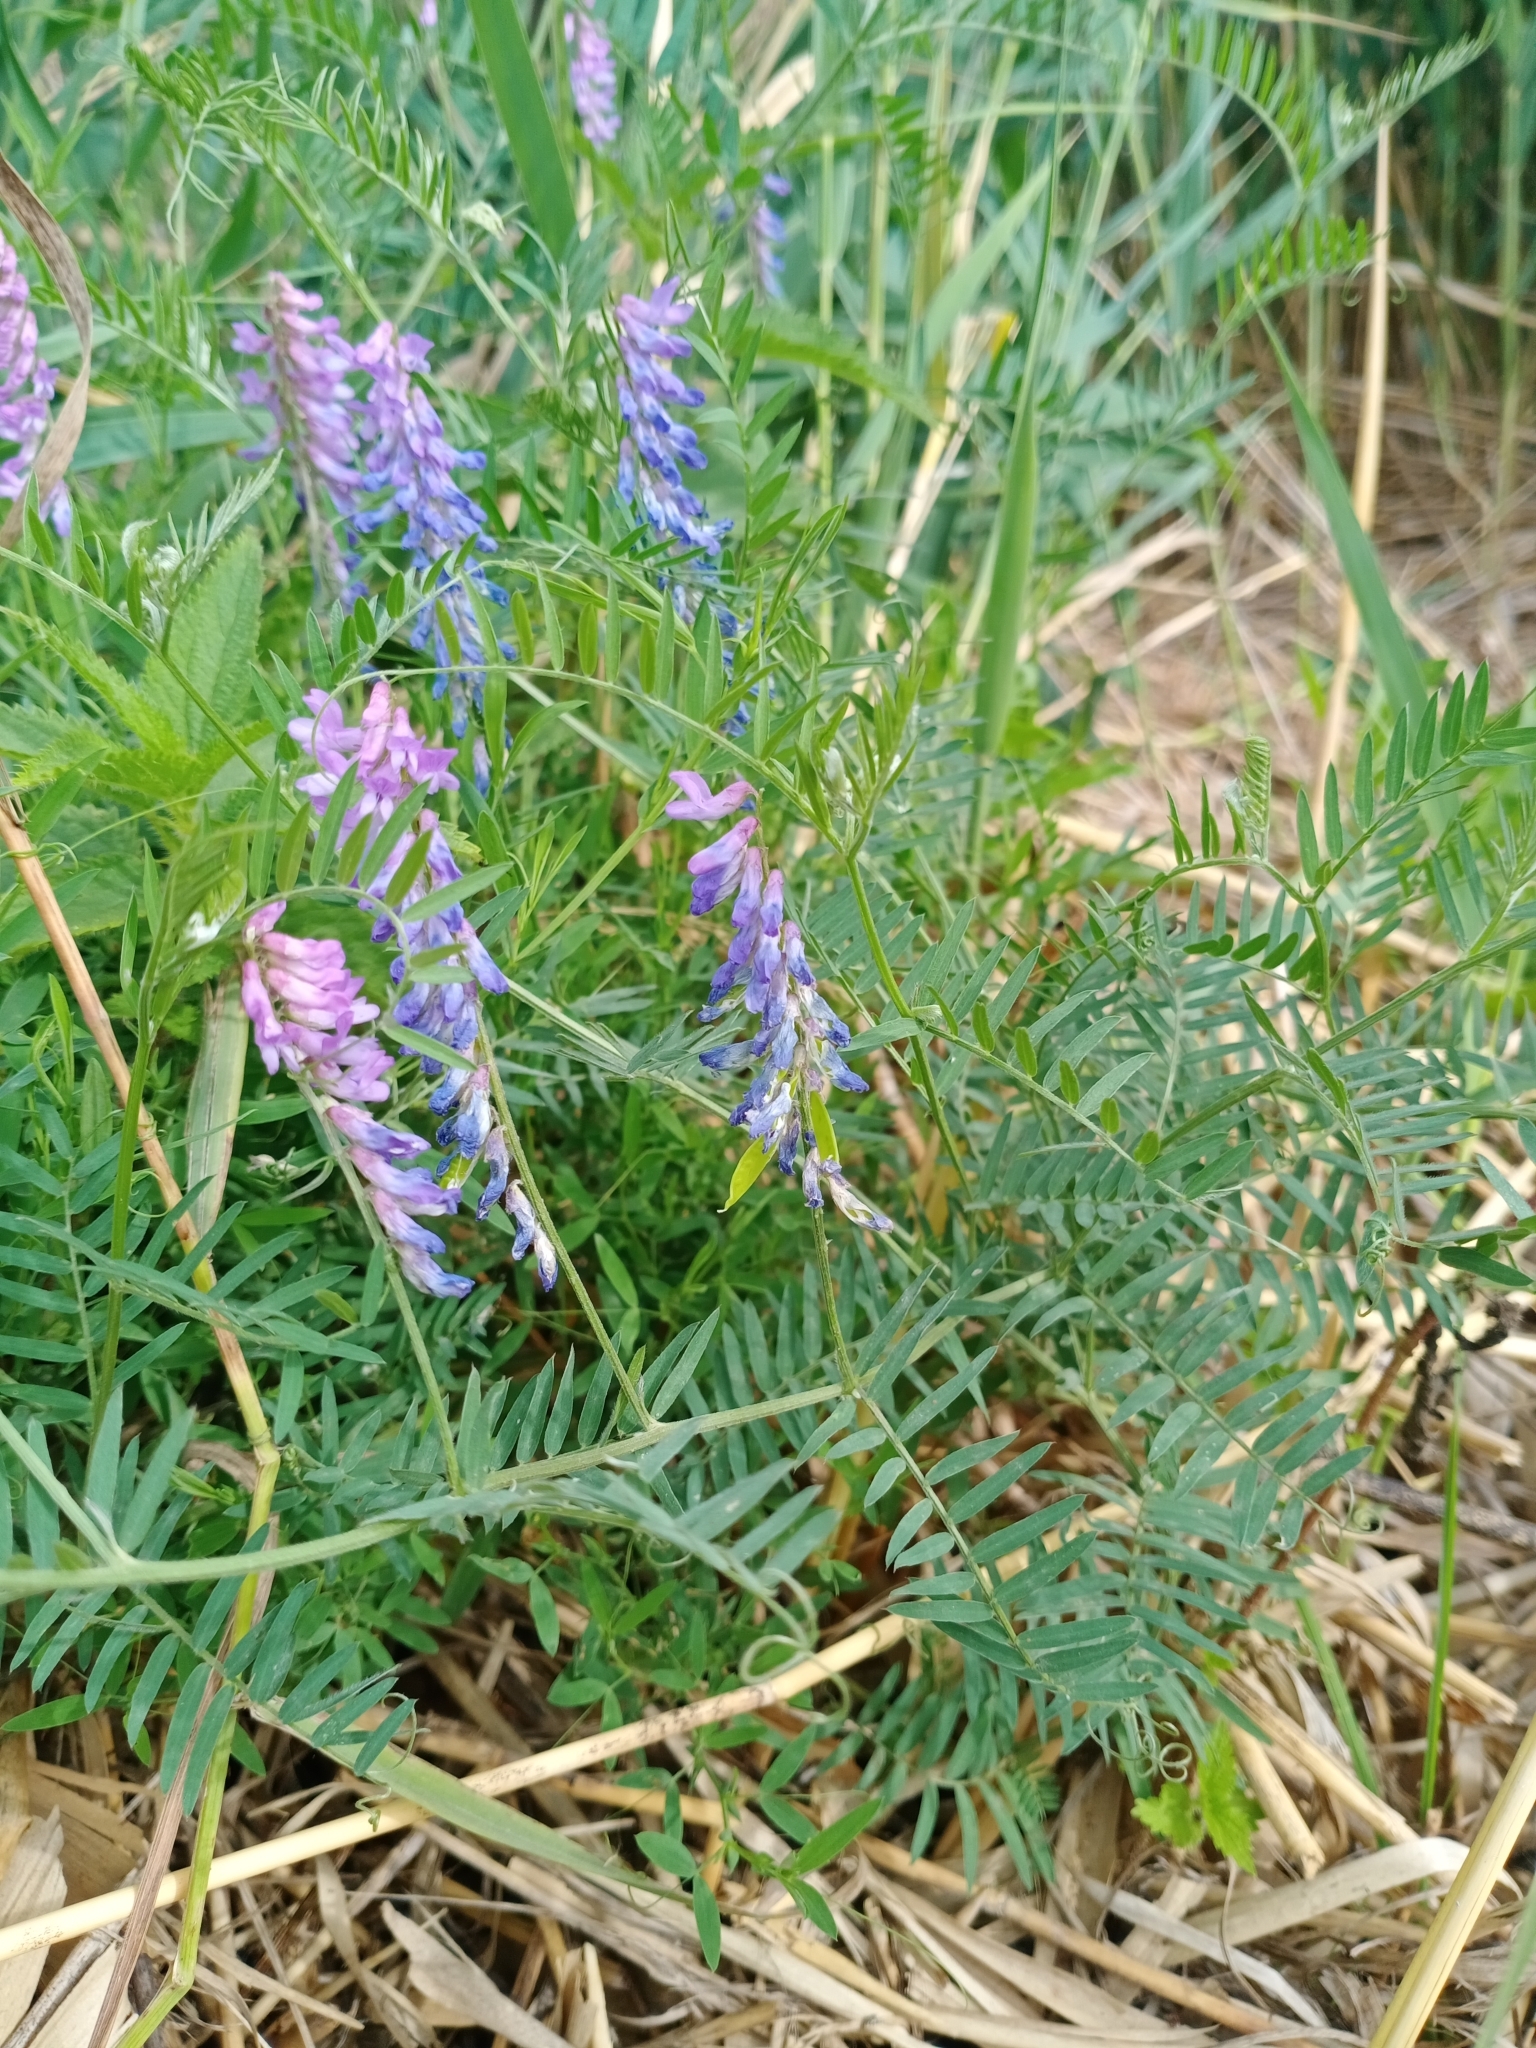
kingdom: Plantae
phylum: Tracheophyta
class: Magnoliopsida
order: Fabales
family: Fabaceae
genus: Vicia
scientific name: Vicia cracca
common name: Bird vetch
